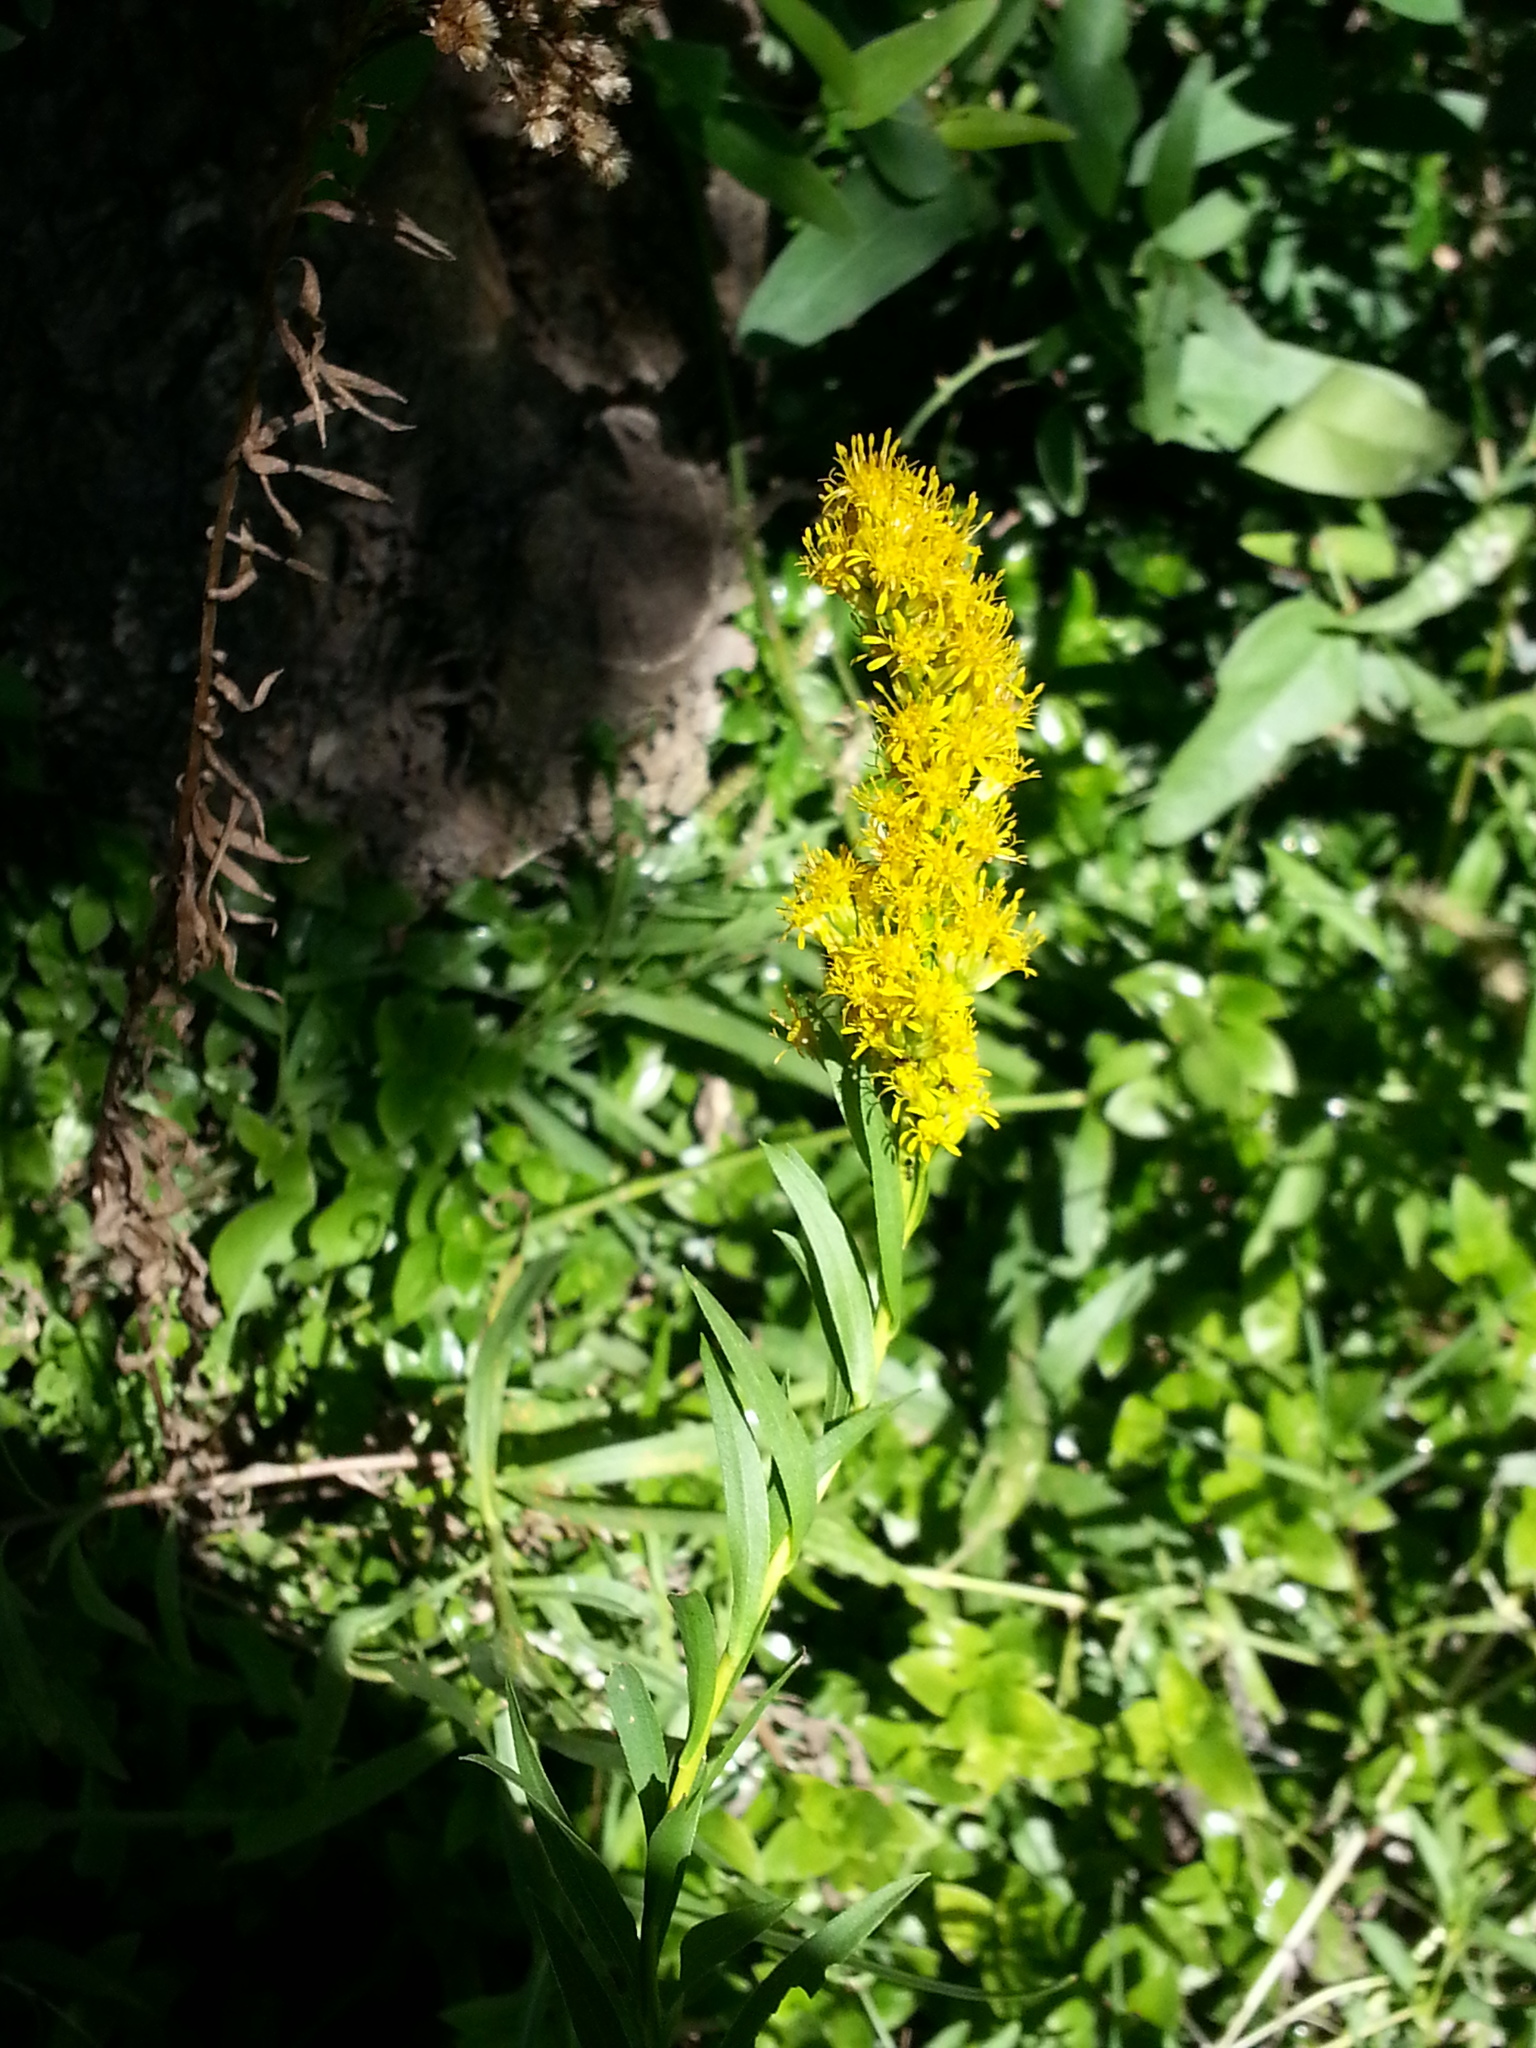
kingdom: Plantae
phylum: Tracheophyta
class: Magnoliopsida
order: Asterales
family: Asteraceae
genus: Solidago
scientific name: Solidago chilensis
